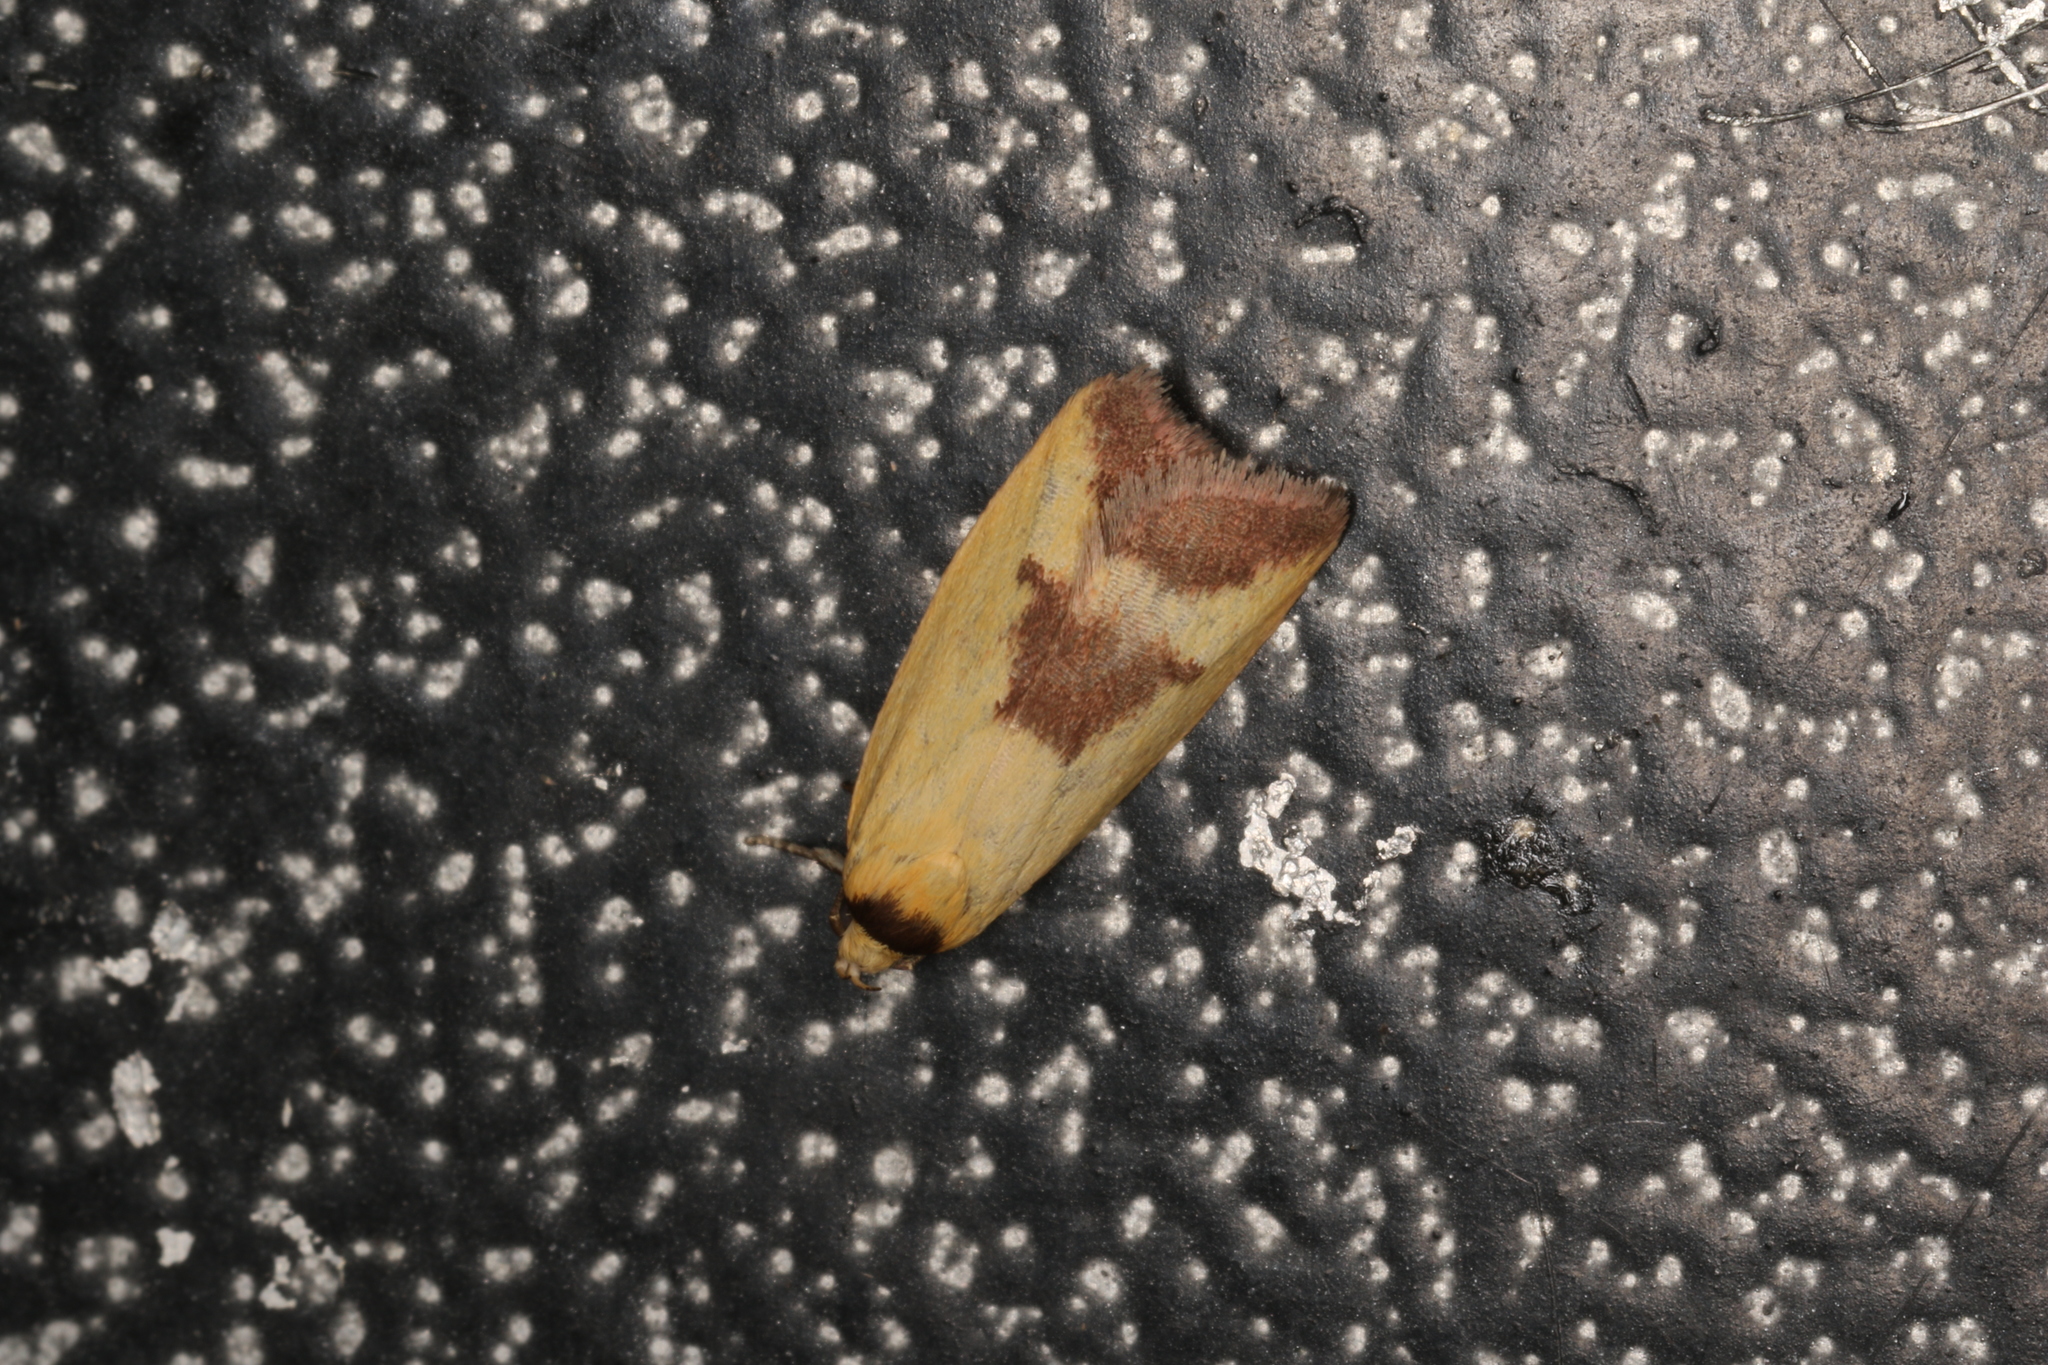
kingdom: Animalia
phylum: Arthropoda
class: Insecta
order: Lepidoptera
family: Oecophoridae
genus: Ageletha
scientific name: Ageletha hemiteles
